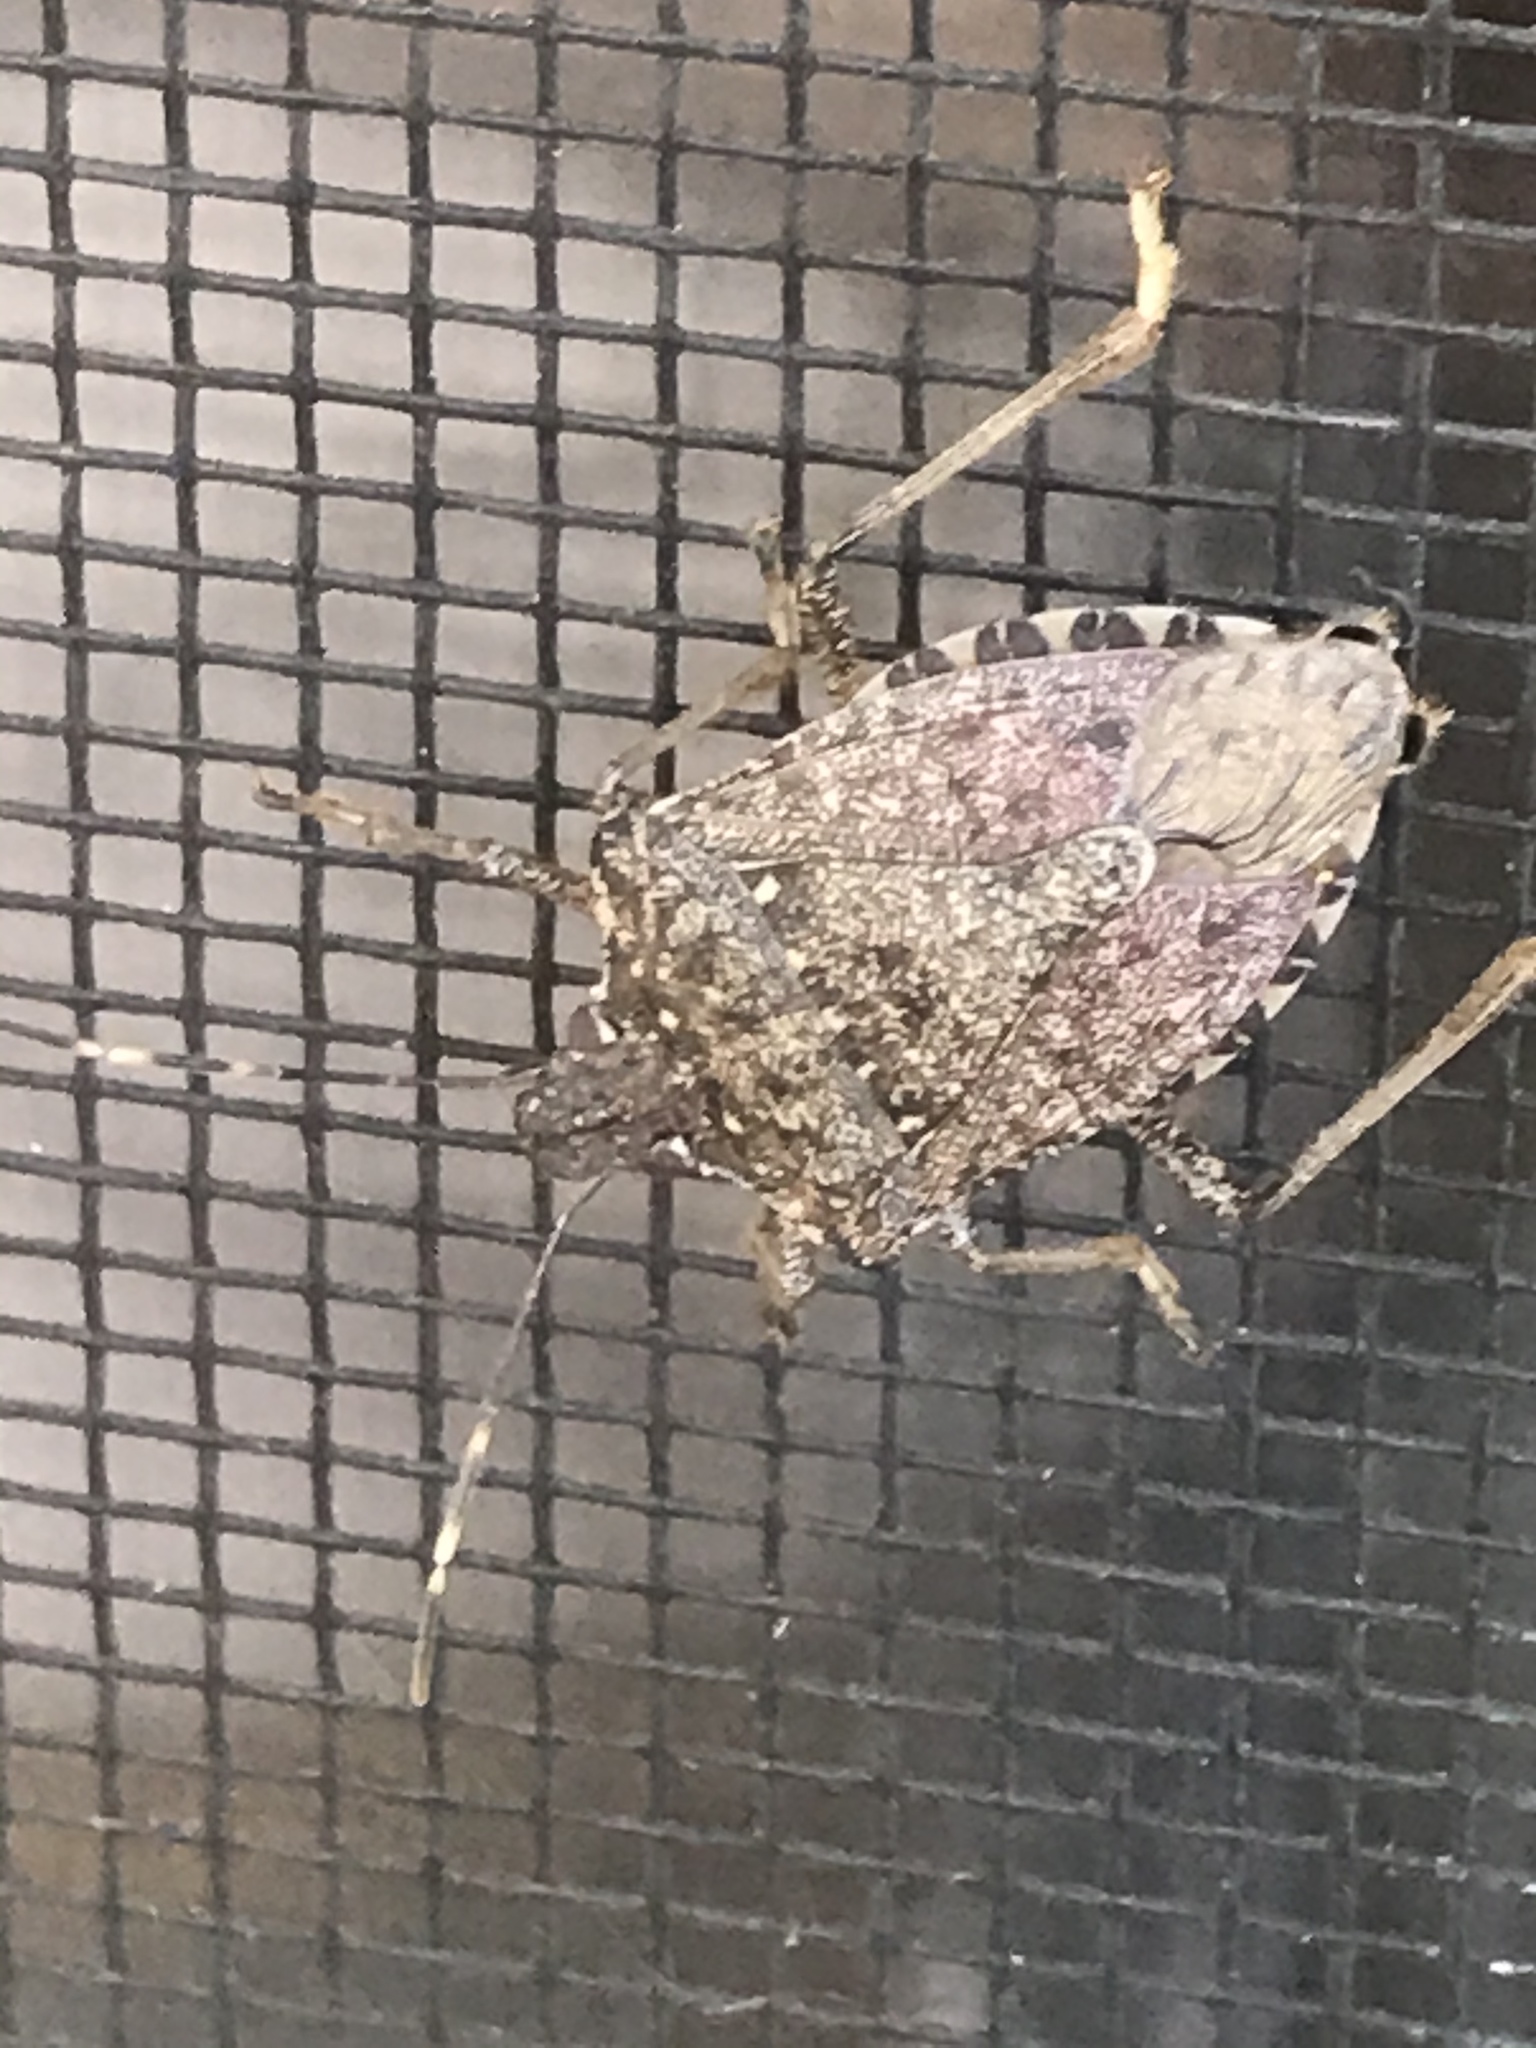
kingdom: Animalia
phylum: Arthropoda
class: Insecta
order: Hemiptera
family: Pentatomidae
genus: Halyomorpha
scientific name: Halyomorpha halys
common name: Brown marmorated stink bug
